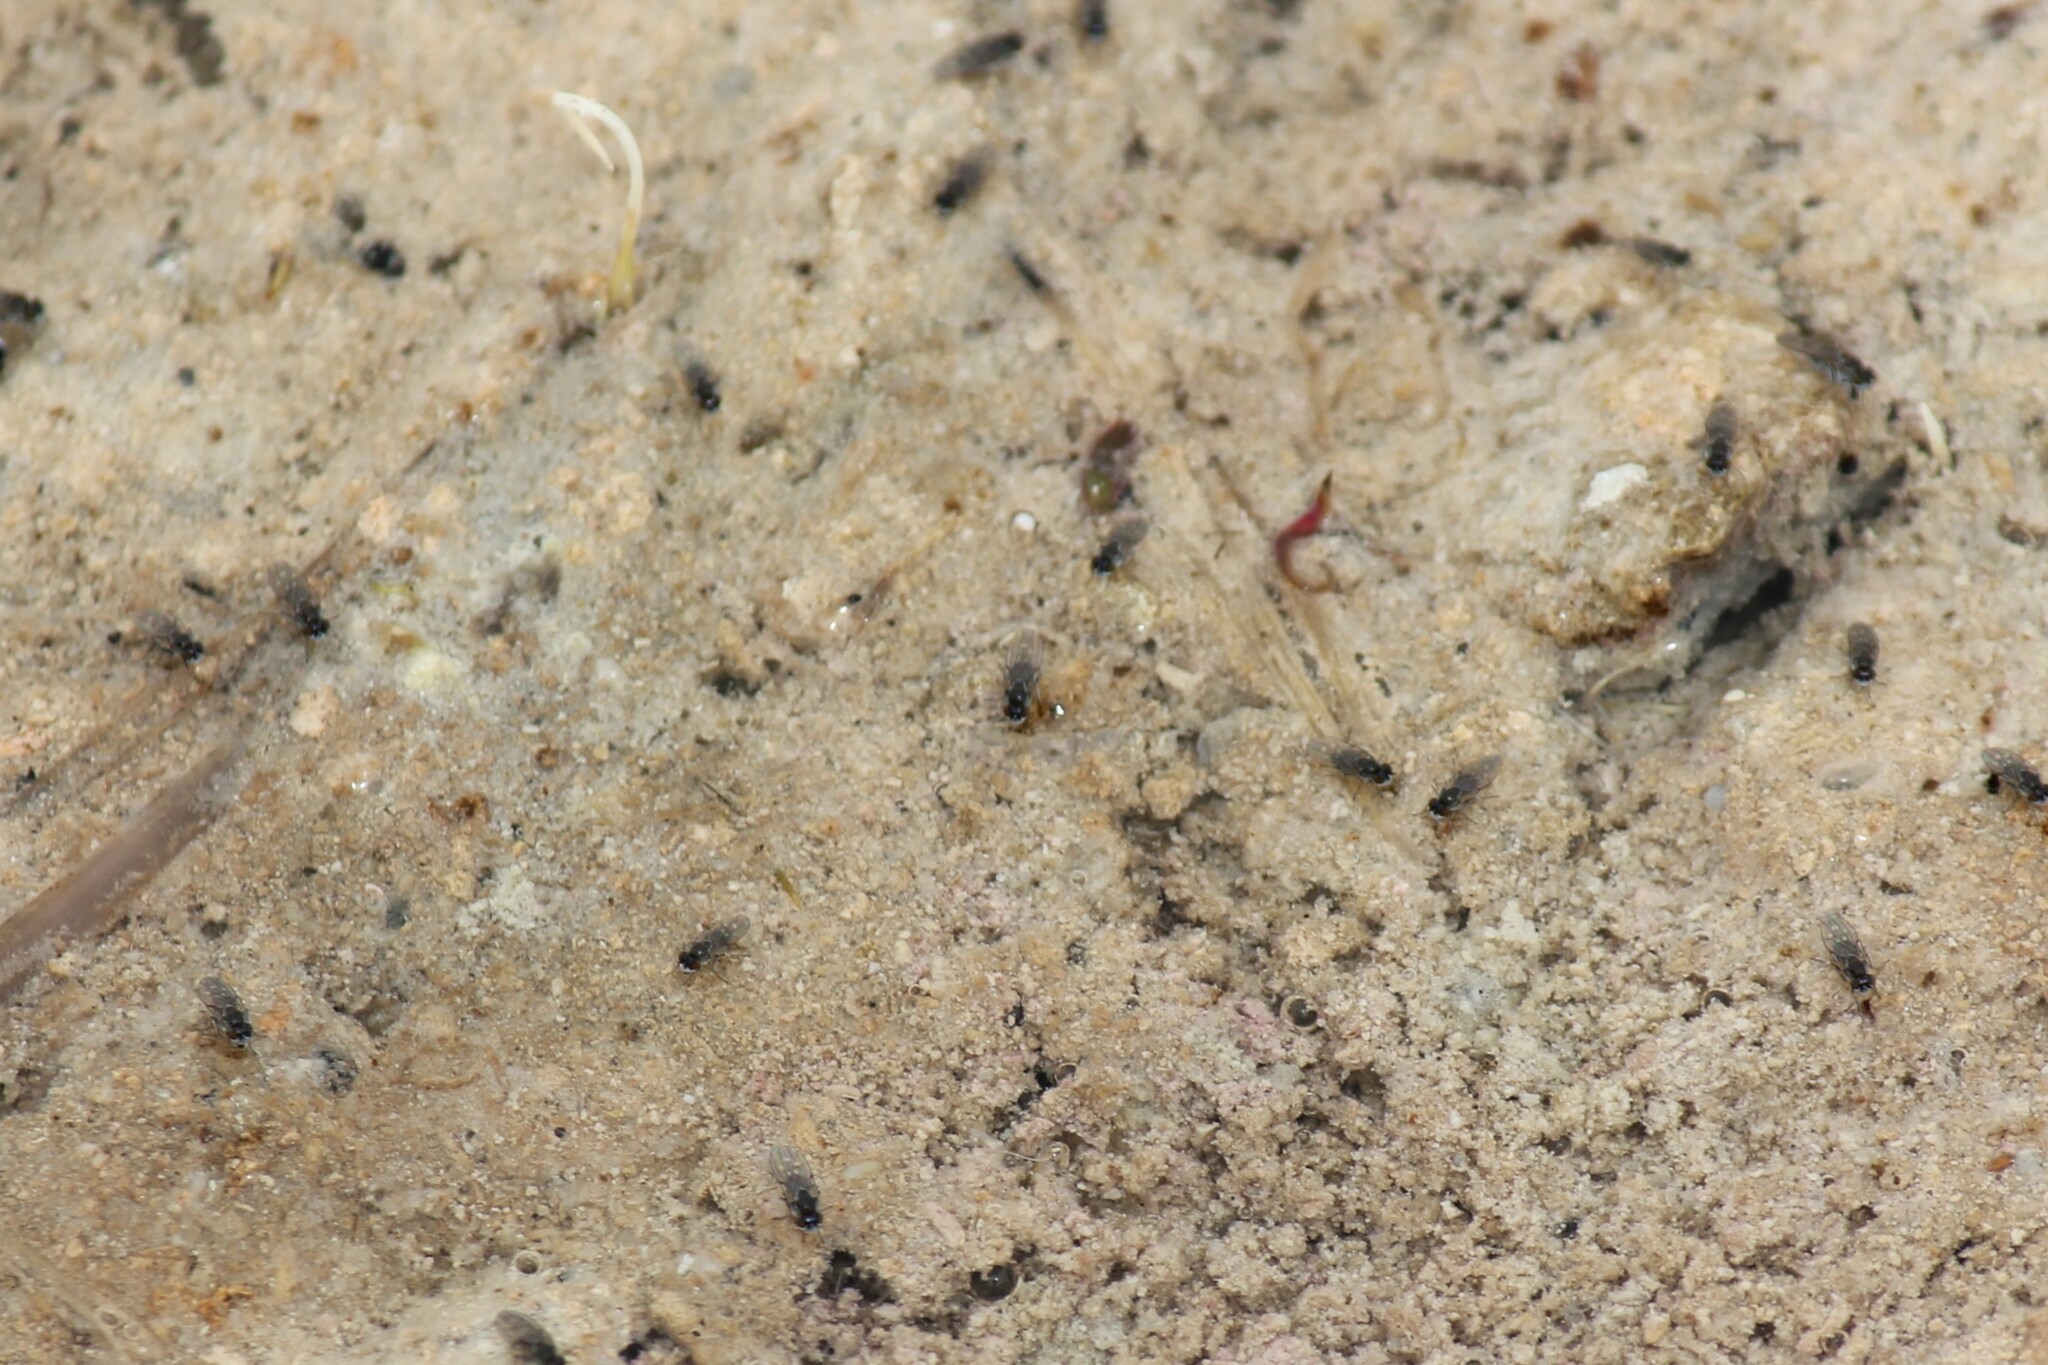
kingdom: Animalia
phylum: Arthropoda
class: Insecta
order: Diptera
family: Ephydridae
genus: Cirrula
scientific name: Cirrula hians
